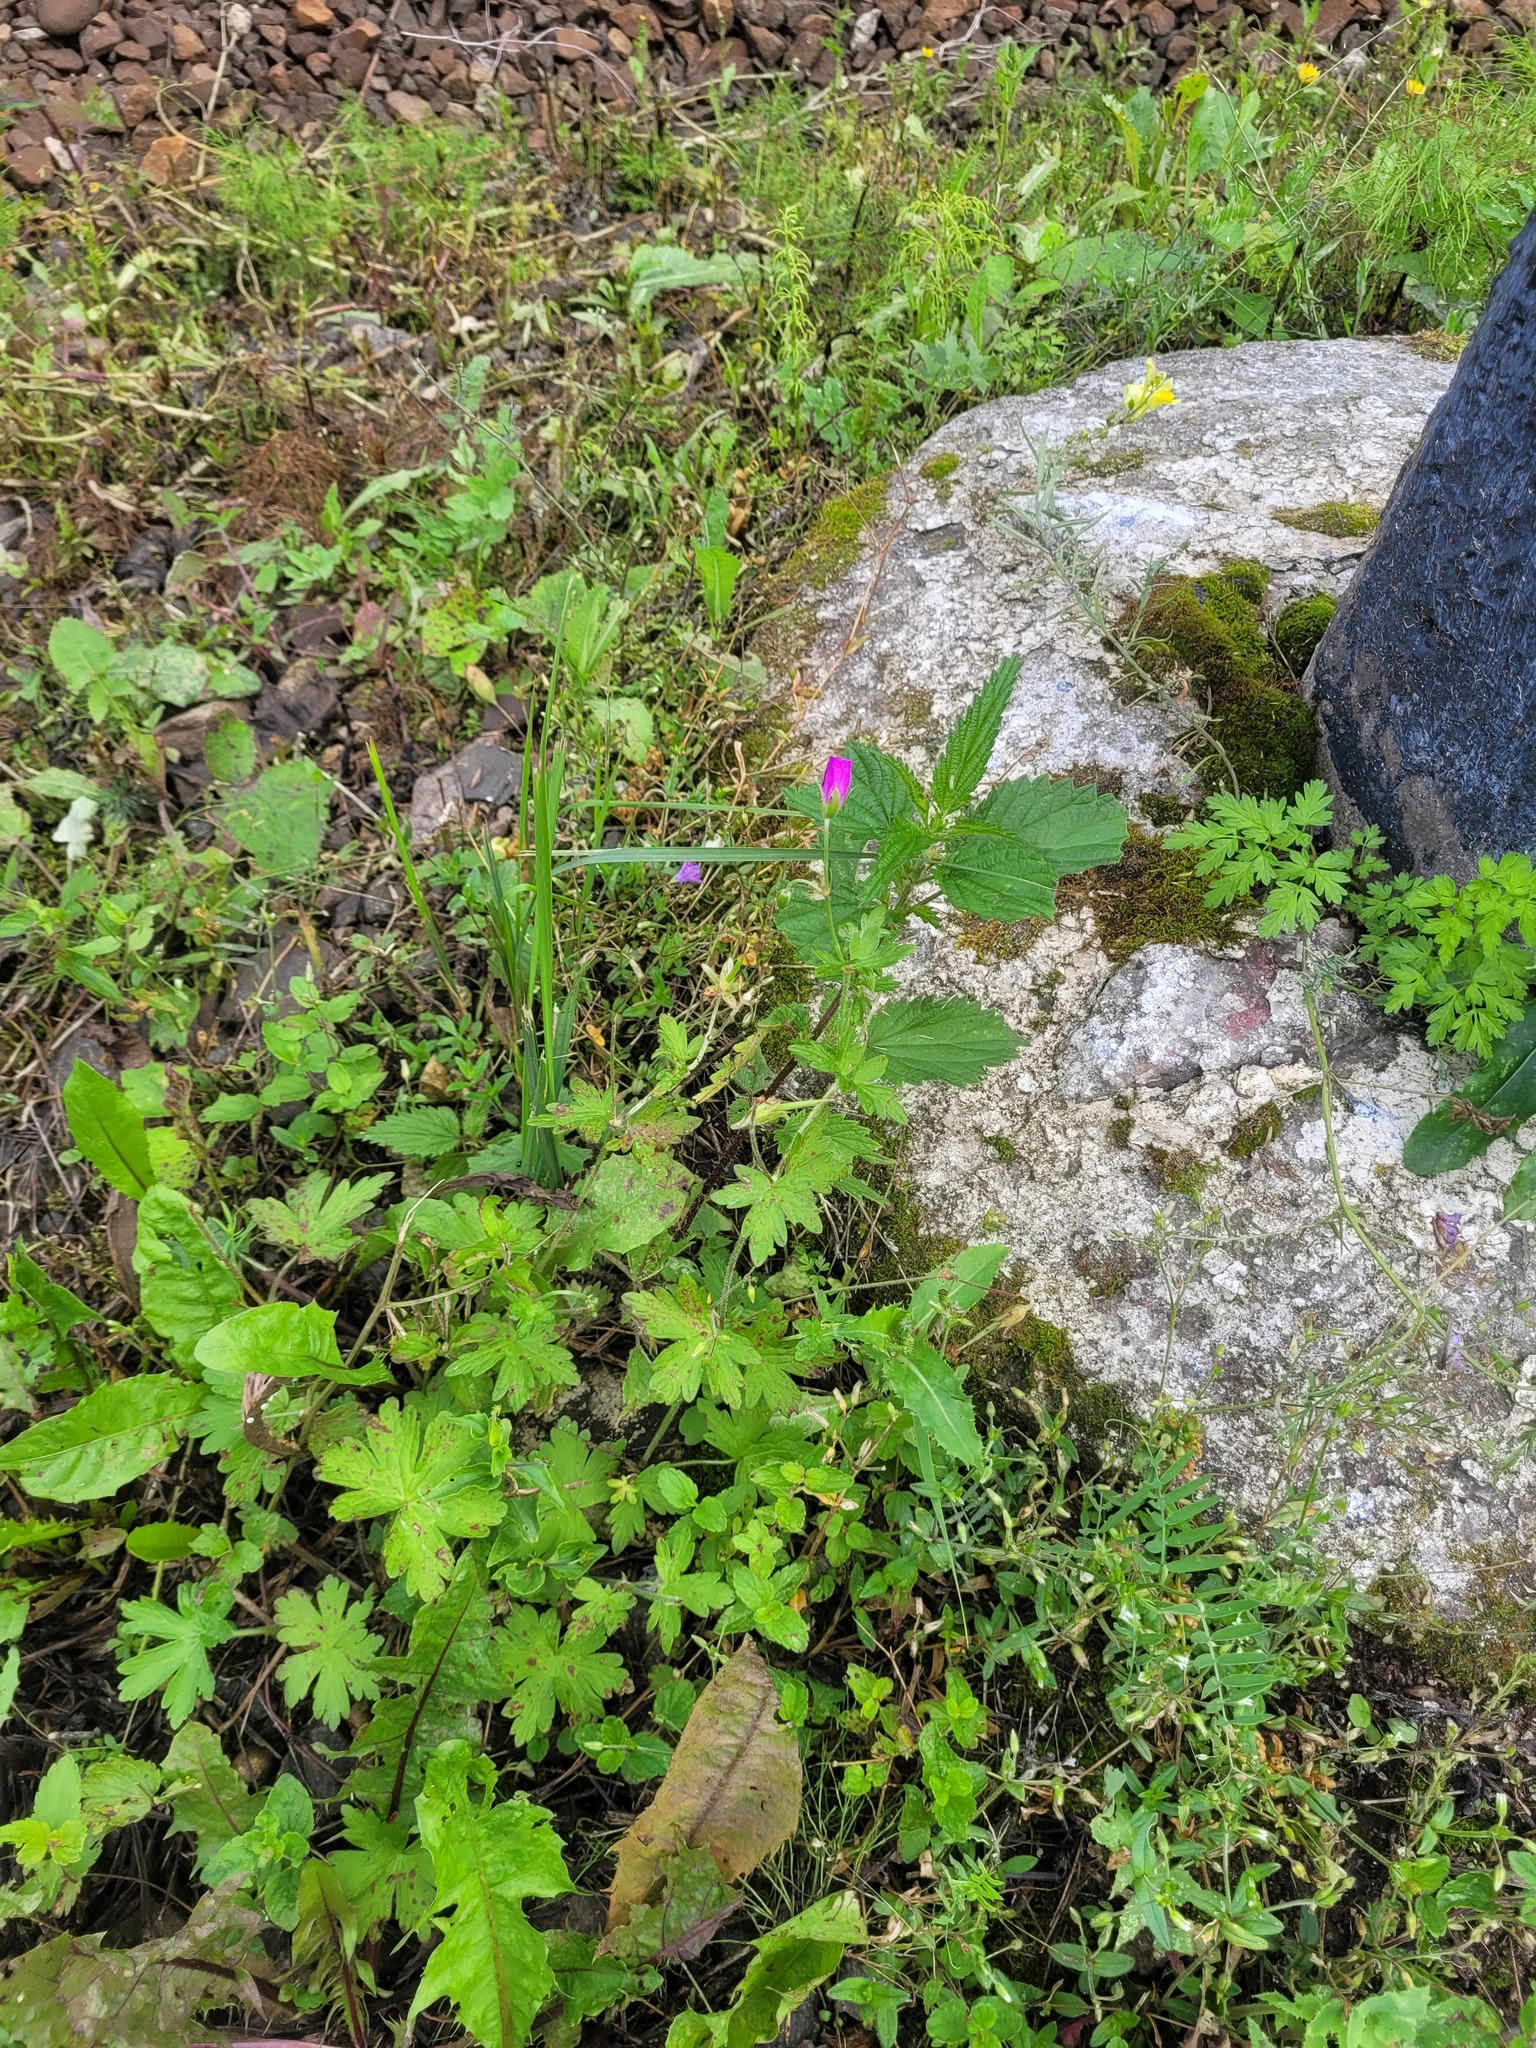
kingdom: Plantae
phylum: Tracheophyta
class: Magnoliopsida
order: Geraniales
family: Geraniaceae
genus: Geranium
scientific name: Geranium palustre
